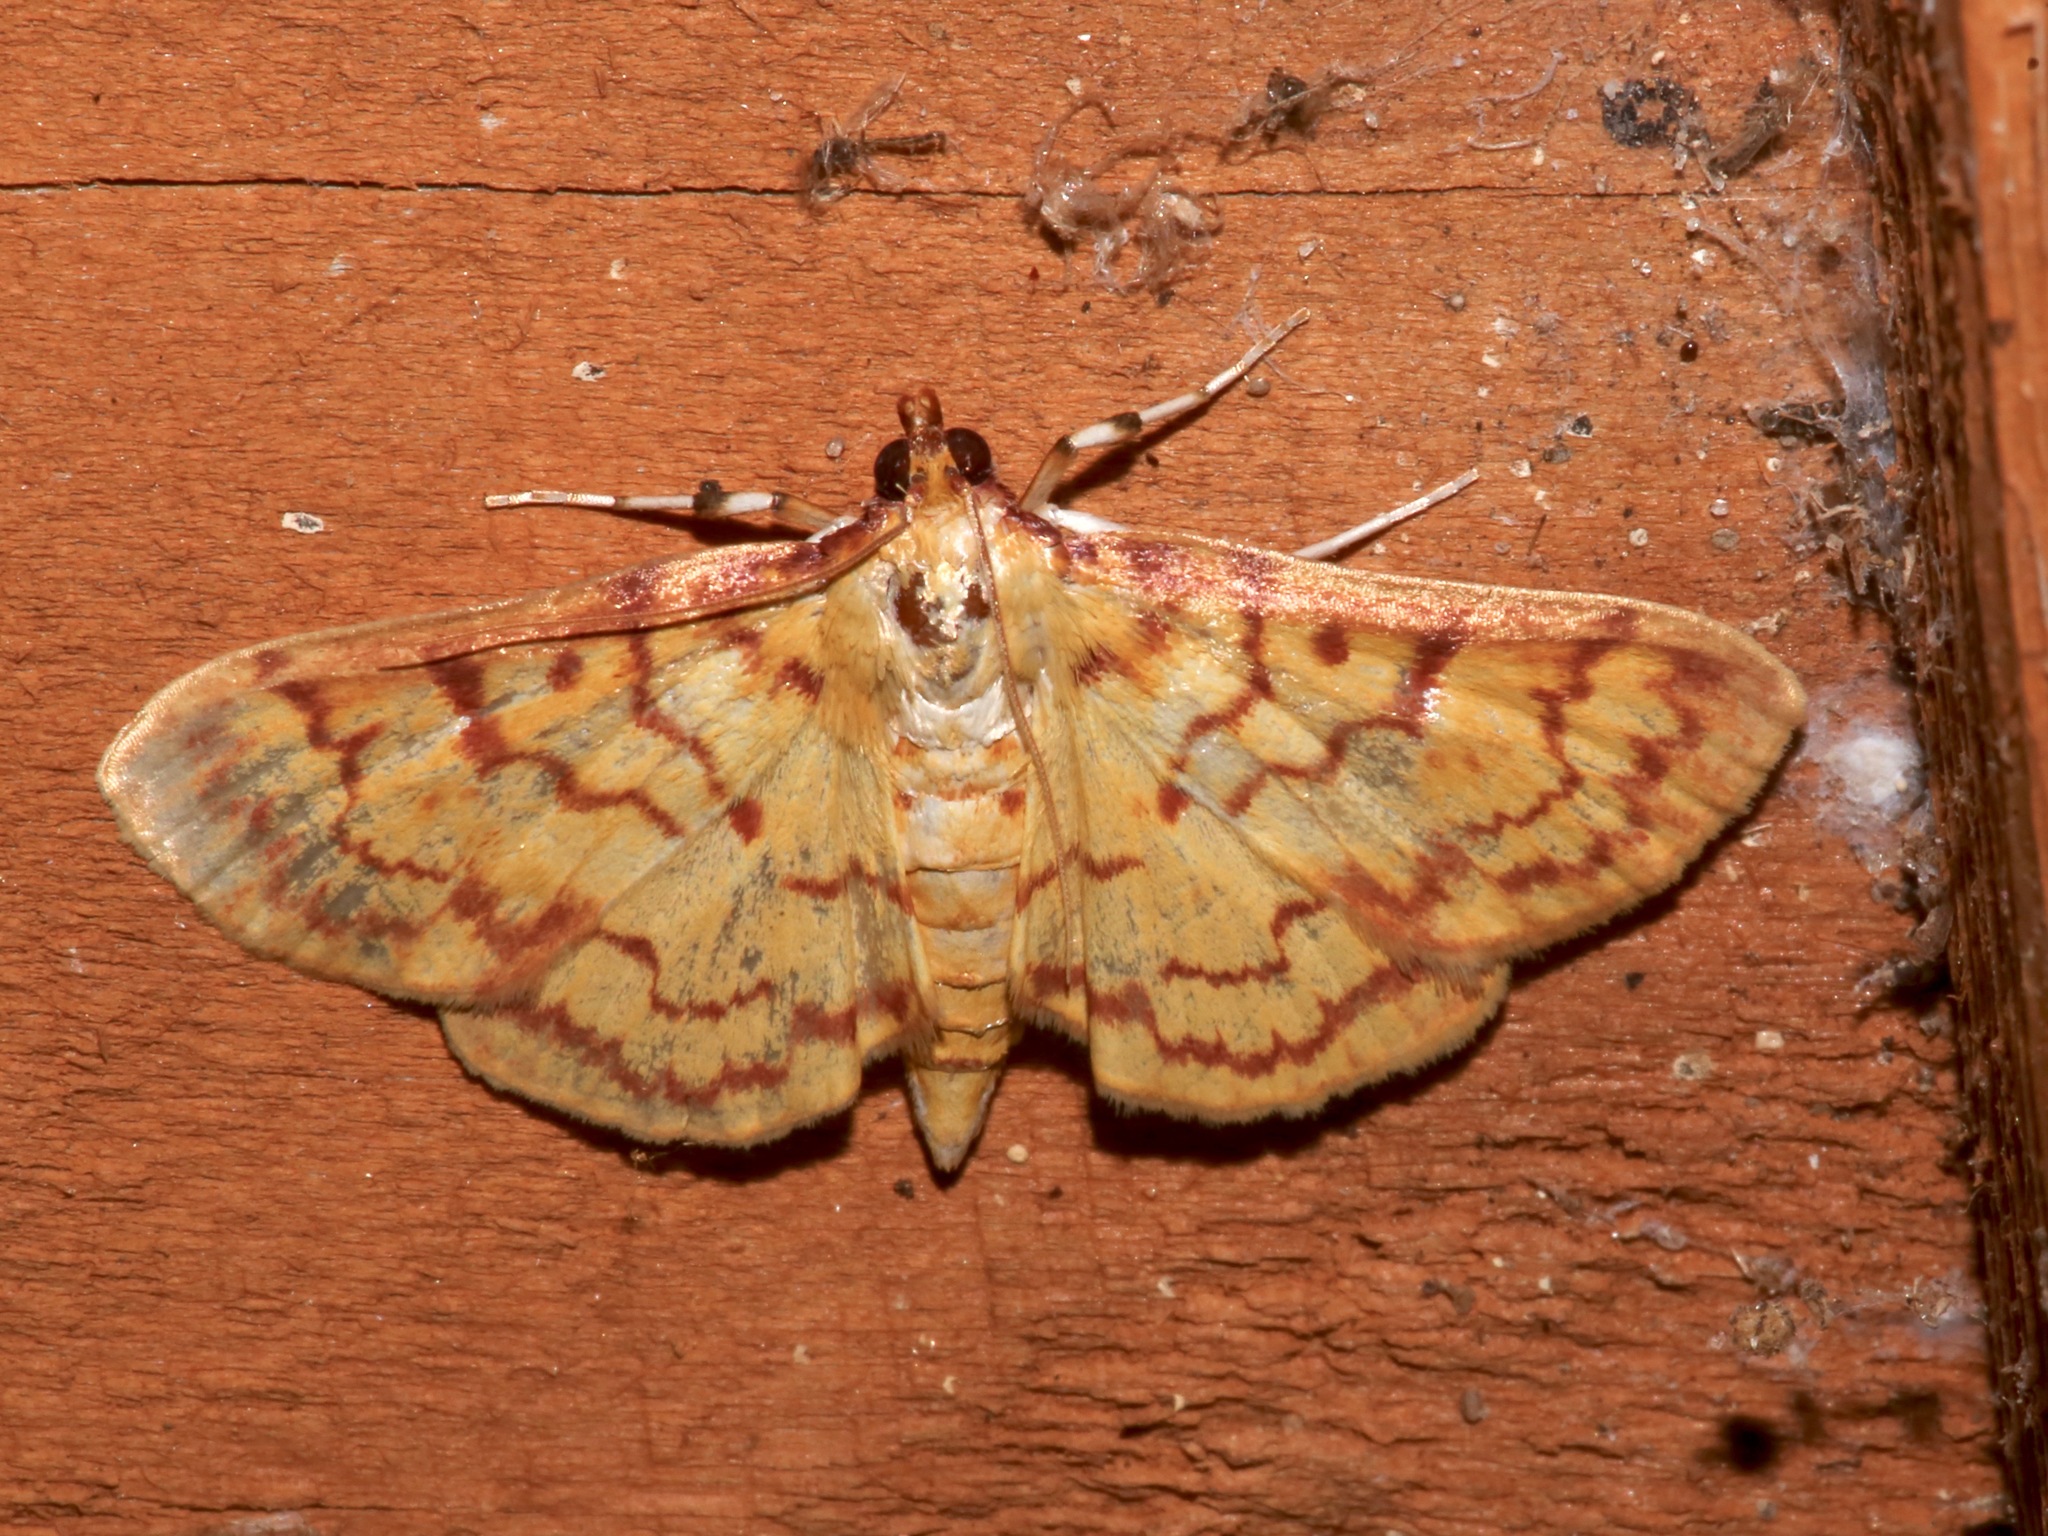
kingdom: Animalia
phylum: Arthropoda
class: Insecta
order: Lepidoptera
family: Crambidae
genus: Polygrammodes
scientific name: Polygrammodes flavidalis
